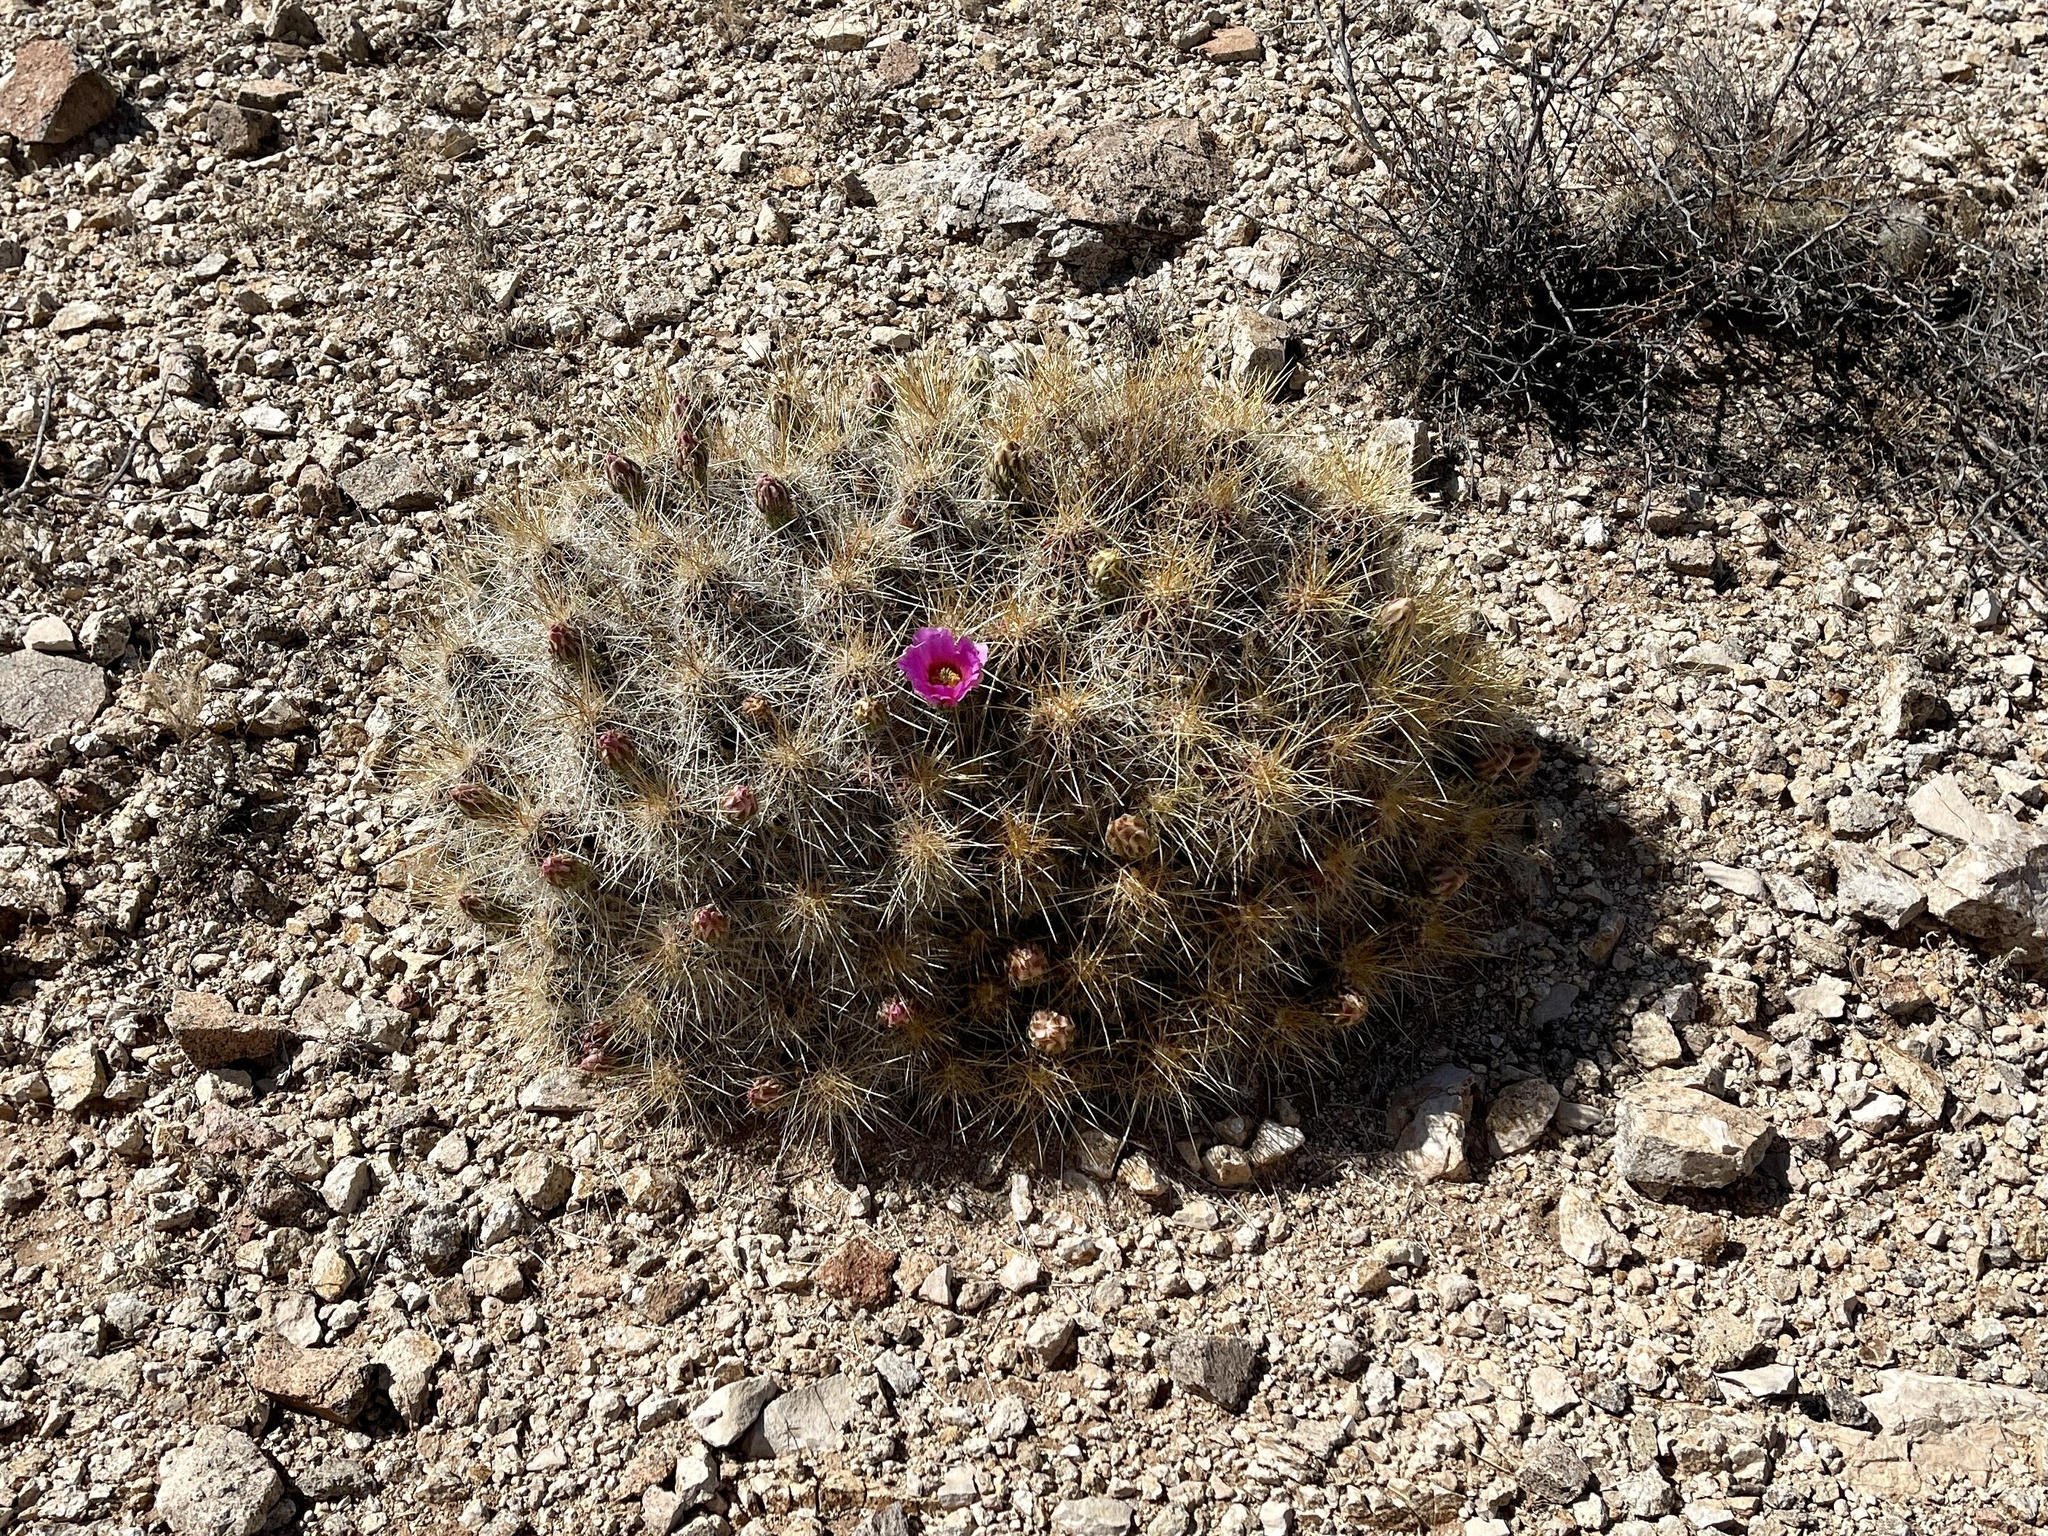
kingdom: Plantae
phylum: Tracheophyta
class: Magnoliopsida
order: Caryophyllales
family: Cactaceae
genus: Echinocereus
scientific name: Echinocereus stramineus
